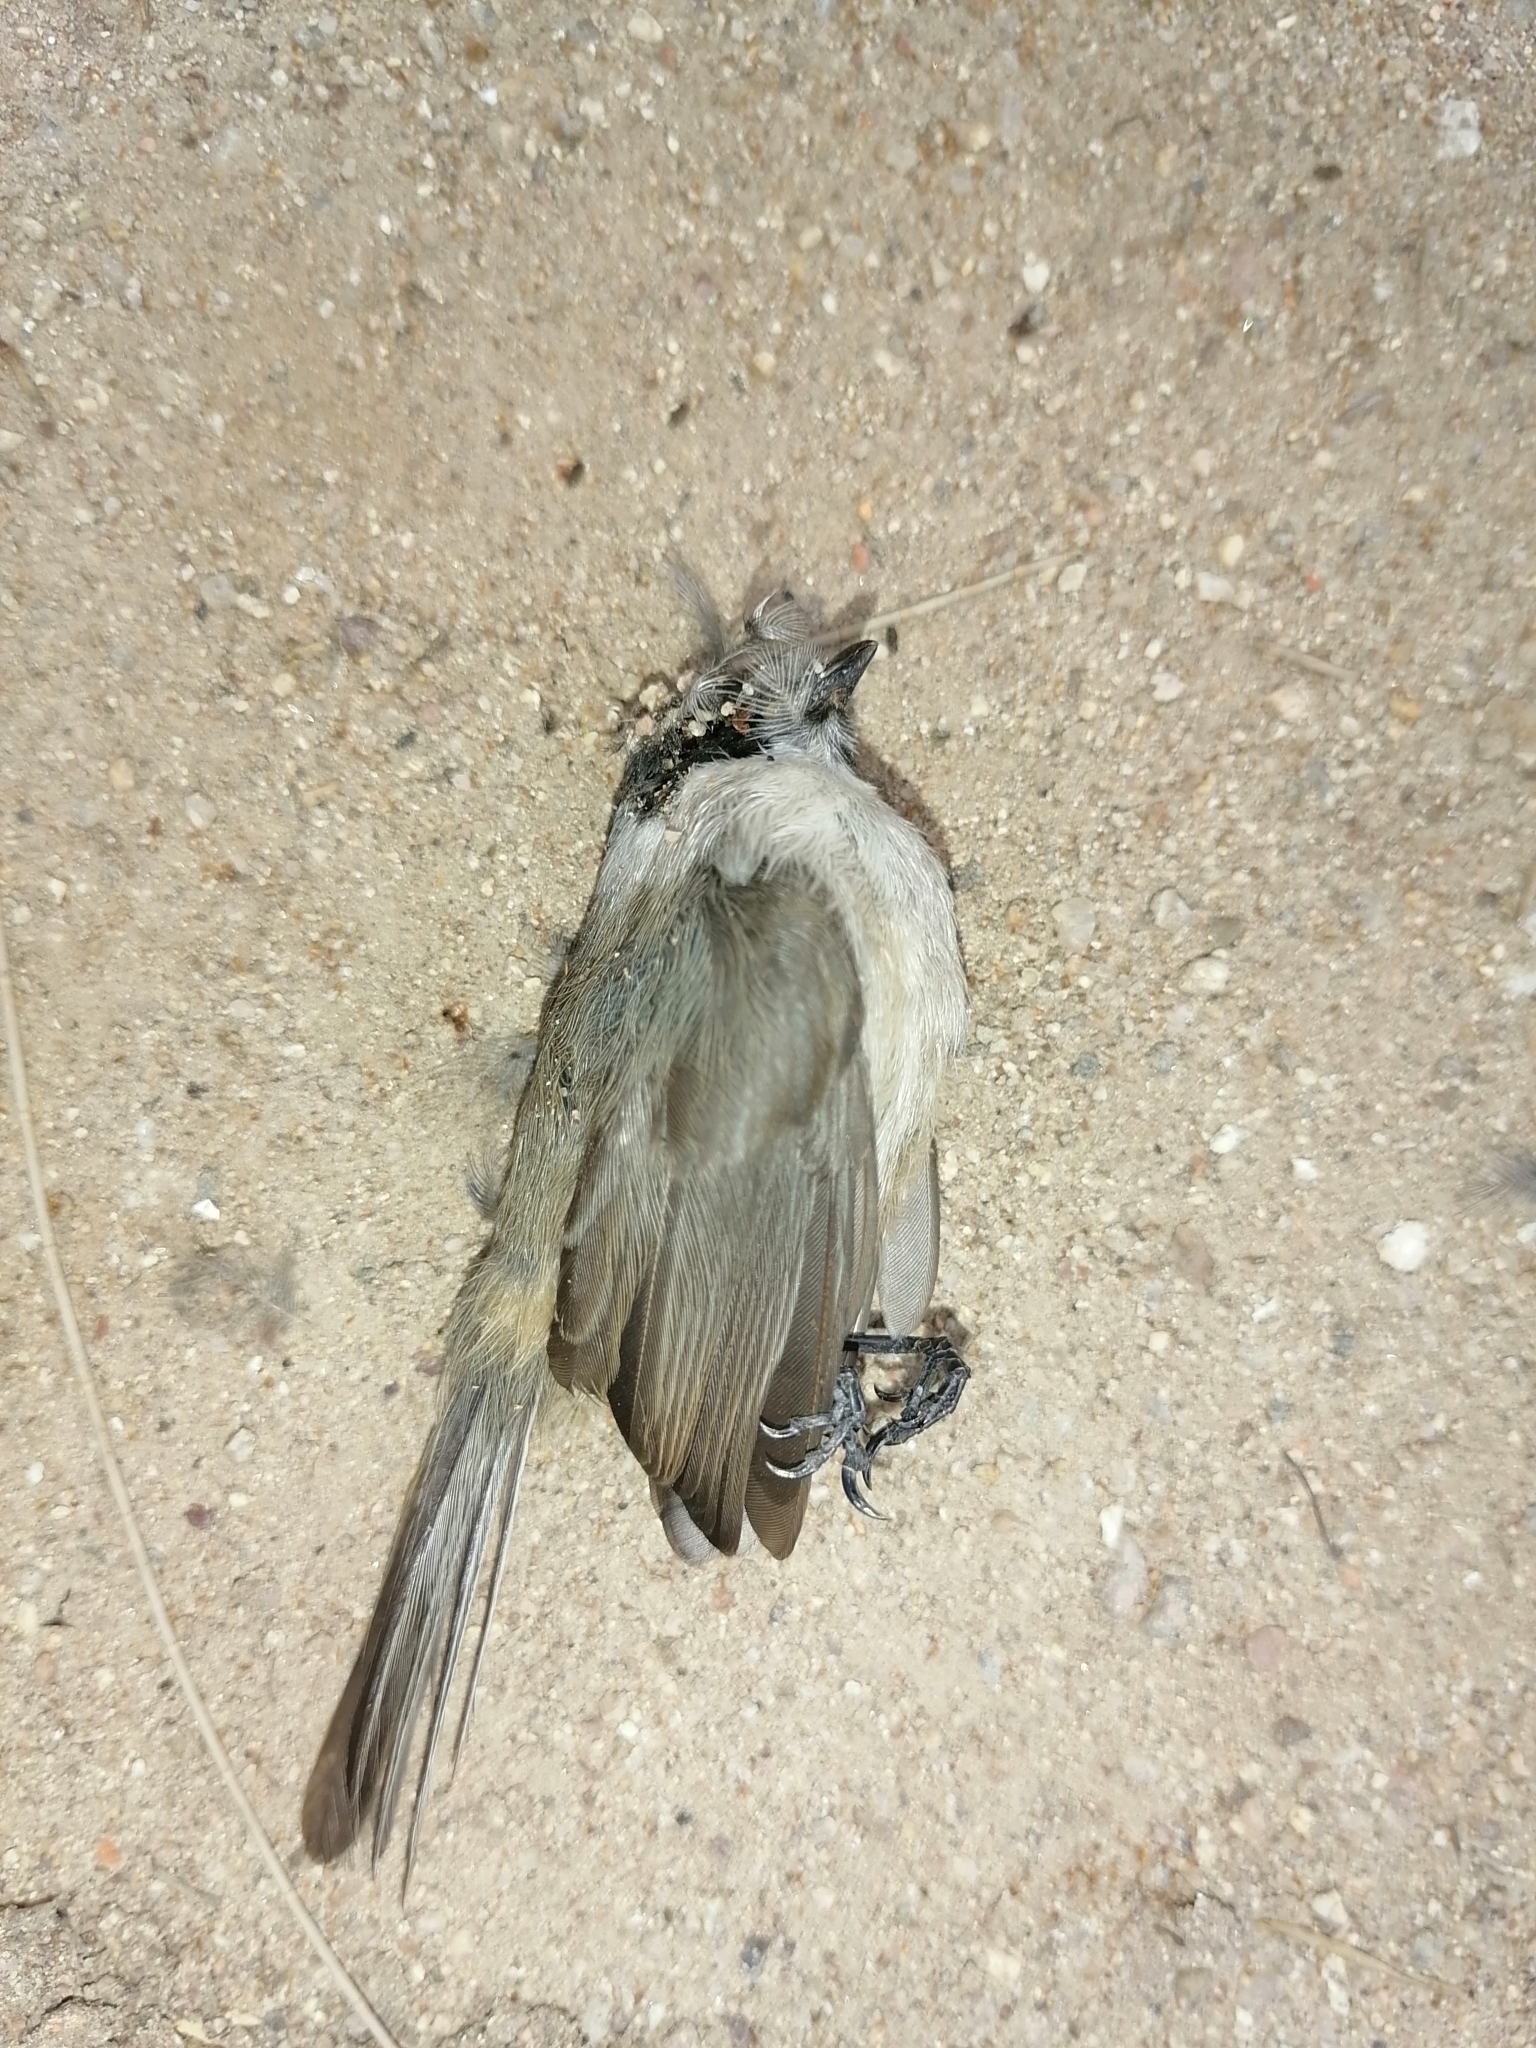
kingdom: Animalia
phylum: Chordata
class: Aves
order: Passeriformes
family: Aegithalidae
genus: Psaltriparus
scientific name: Psaltriparus minimus
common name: American bushtit
